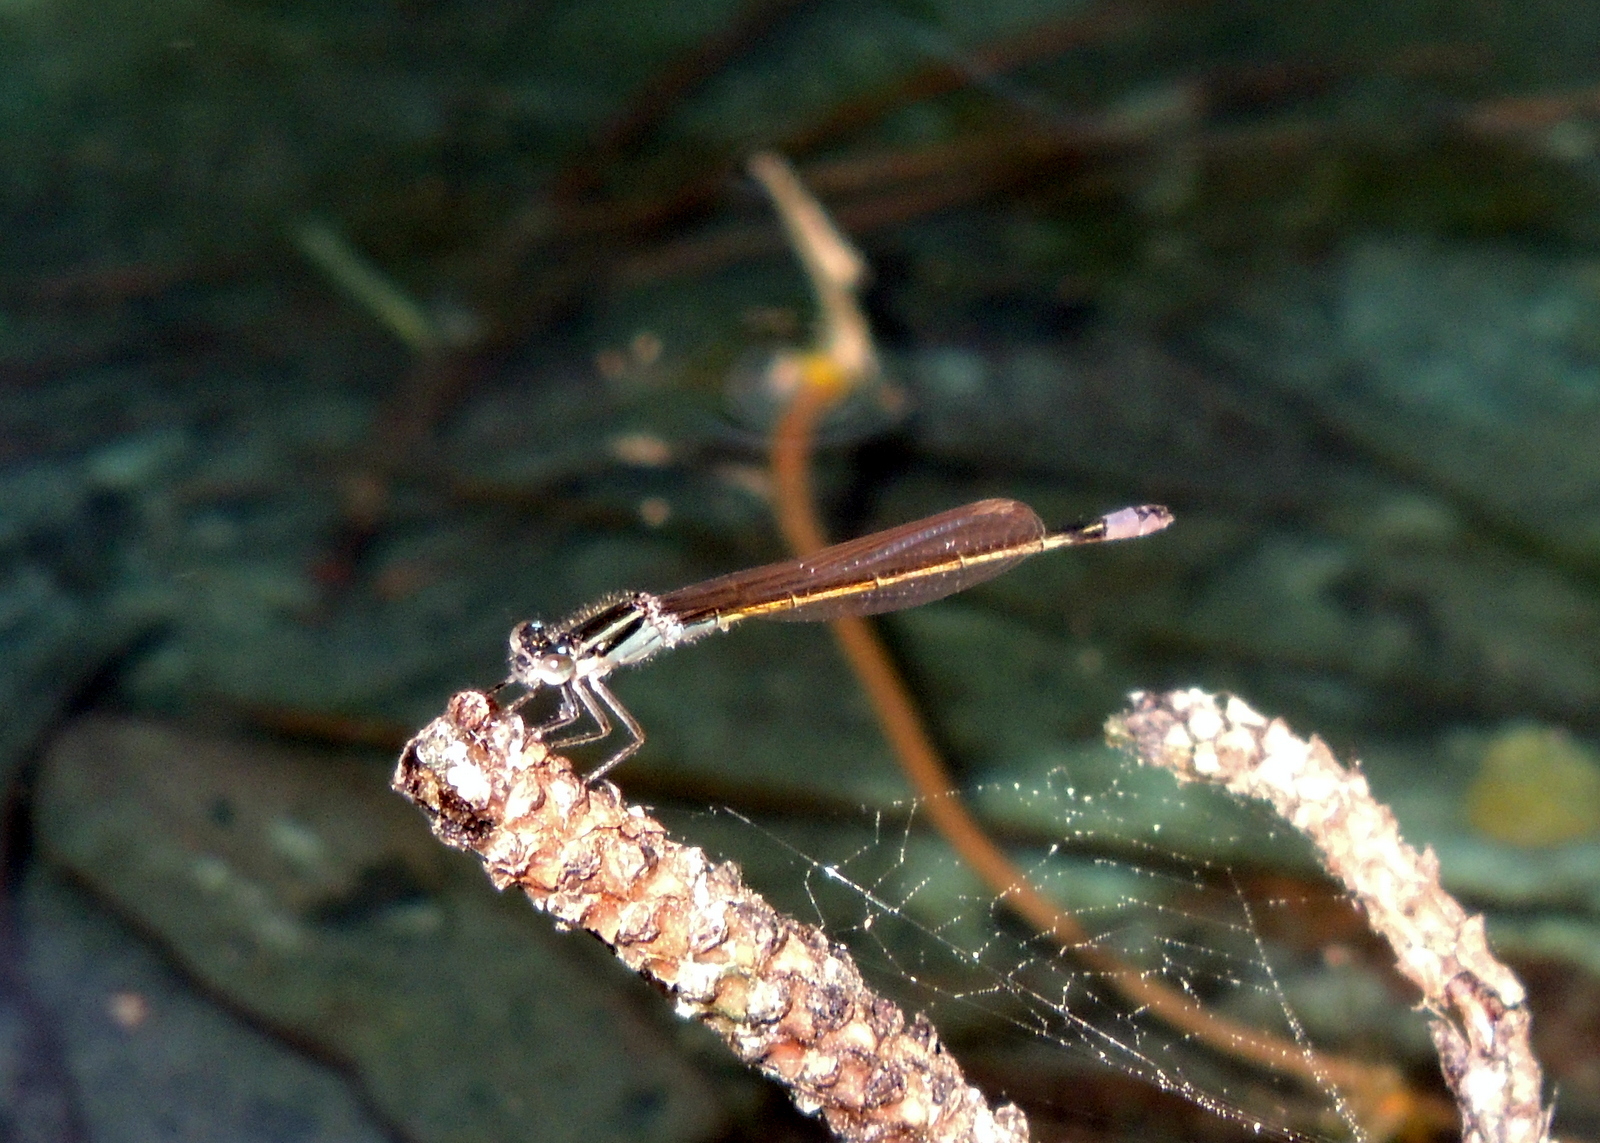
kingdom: Animalia
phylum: Arthropoda
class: Insecta
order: Odonata
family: Coenagrionidae
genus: Ischnura
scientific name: Ischnura ramburii
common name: Rambur's forktail
